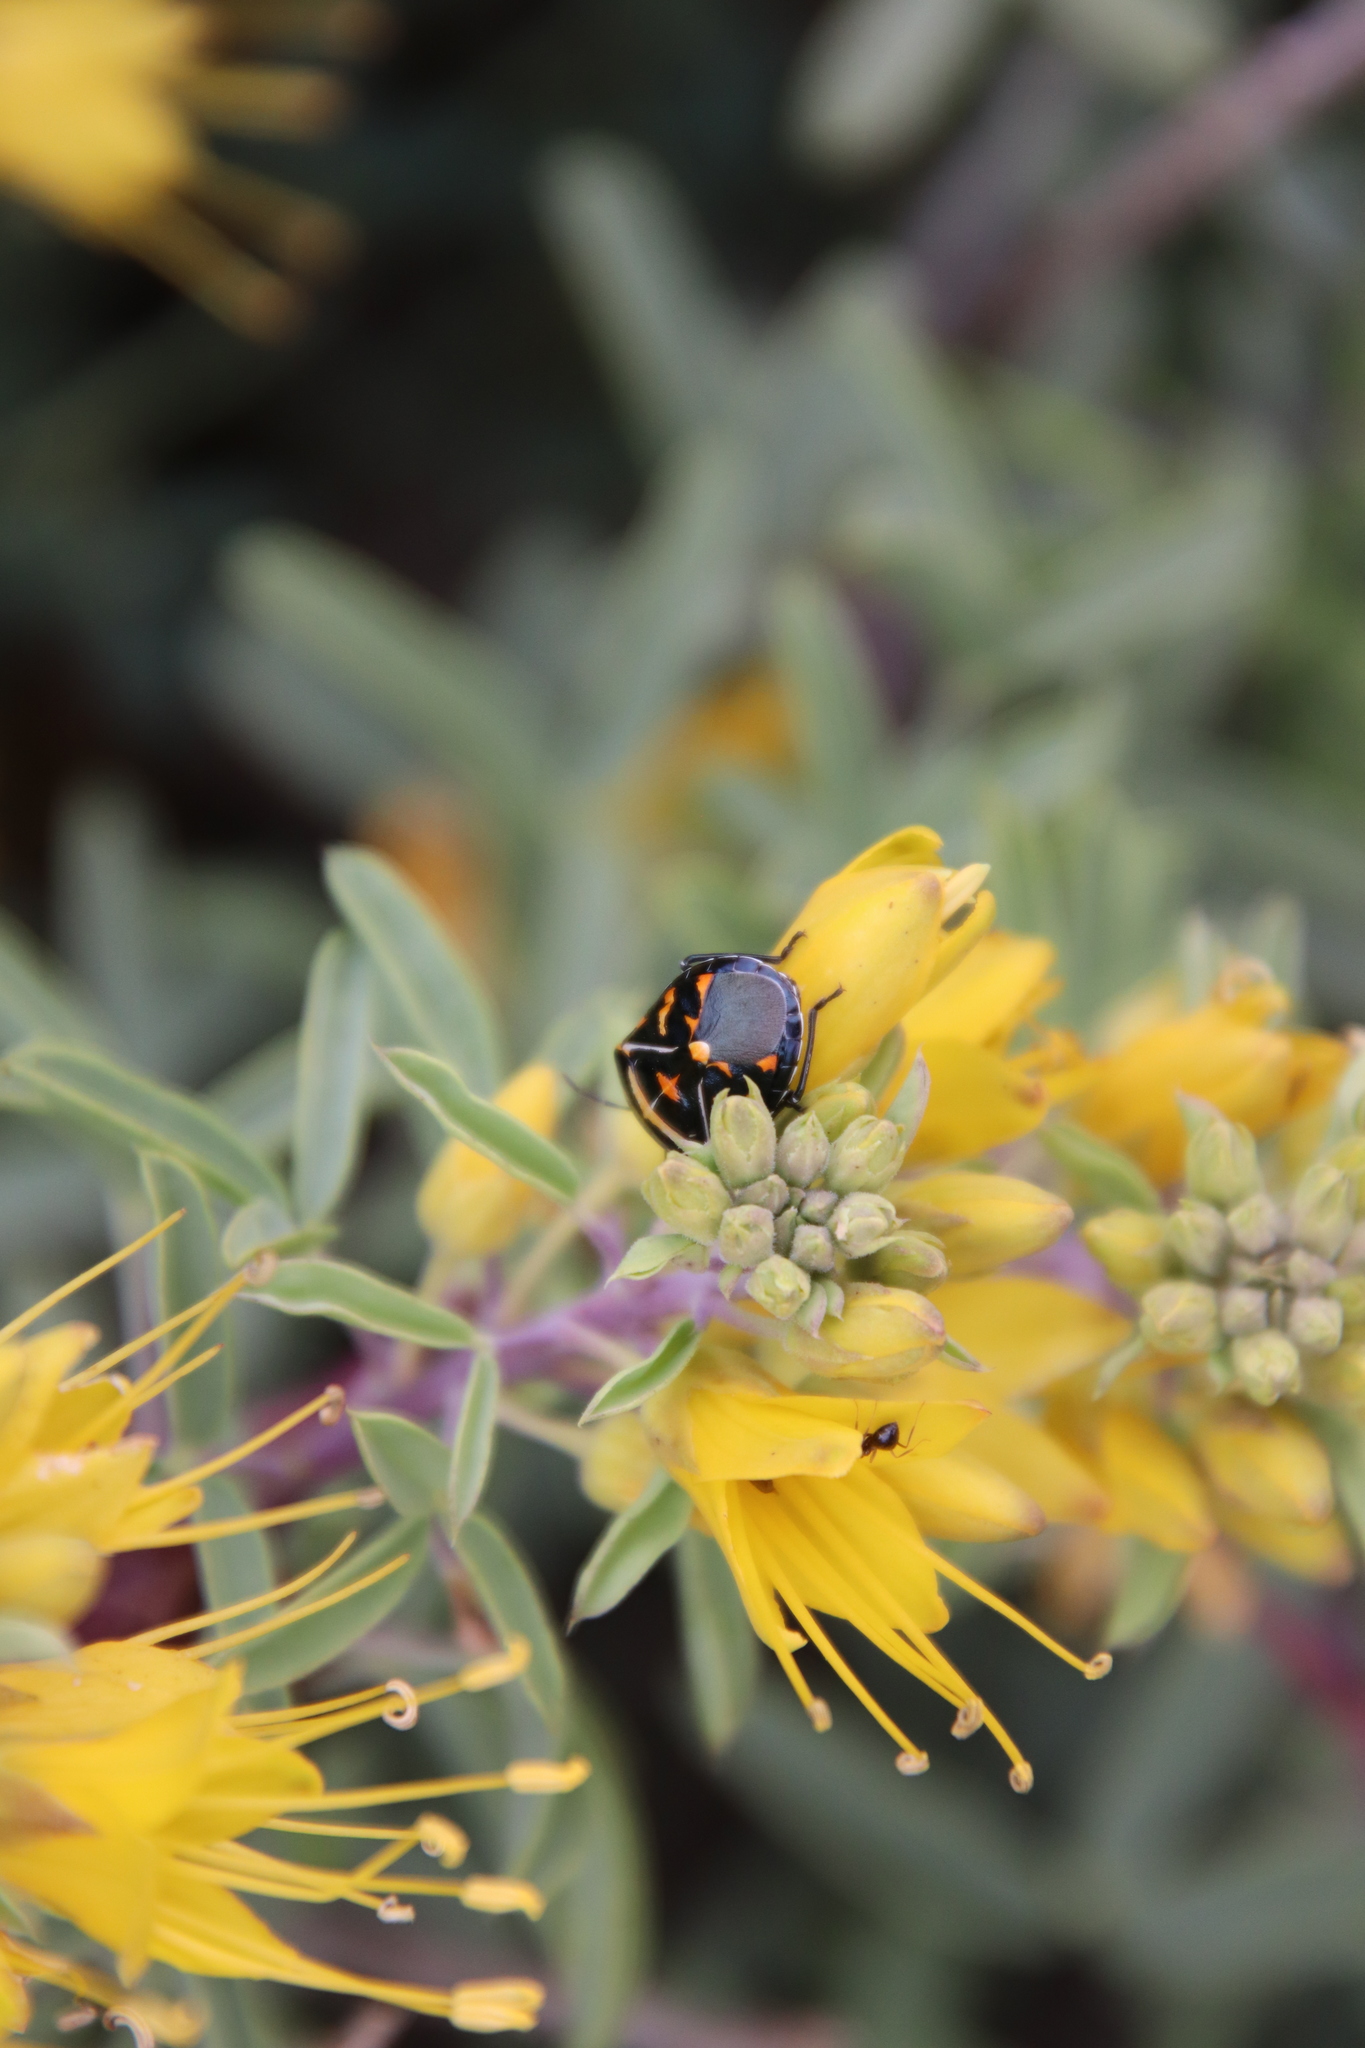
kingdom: Animalia
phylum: Arthropoda
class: Insecta
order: Hemiptera
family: Pentatomidae
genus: Murgantia
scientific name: Murgantia histrionica
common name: Harlequin bug
